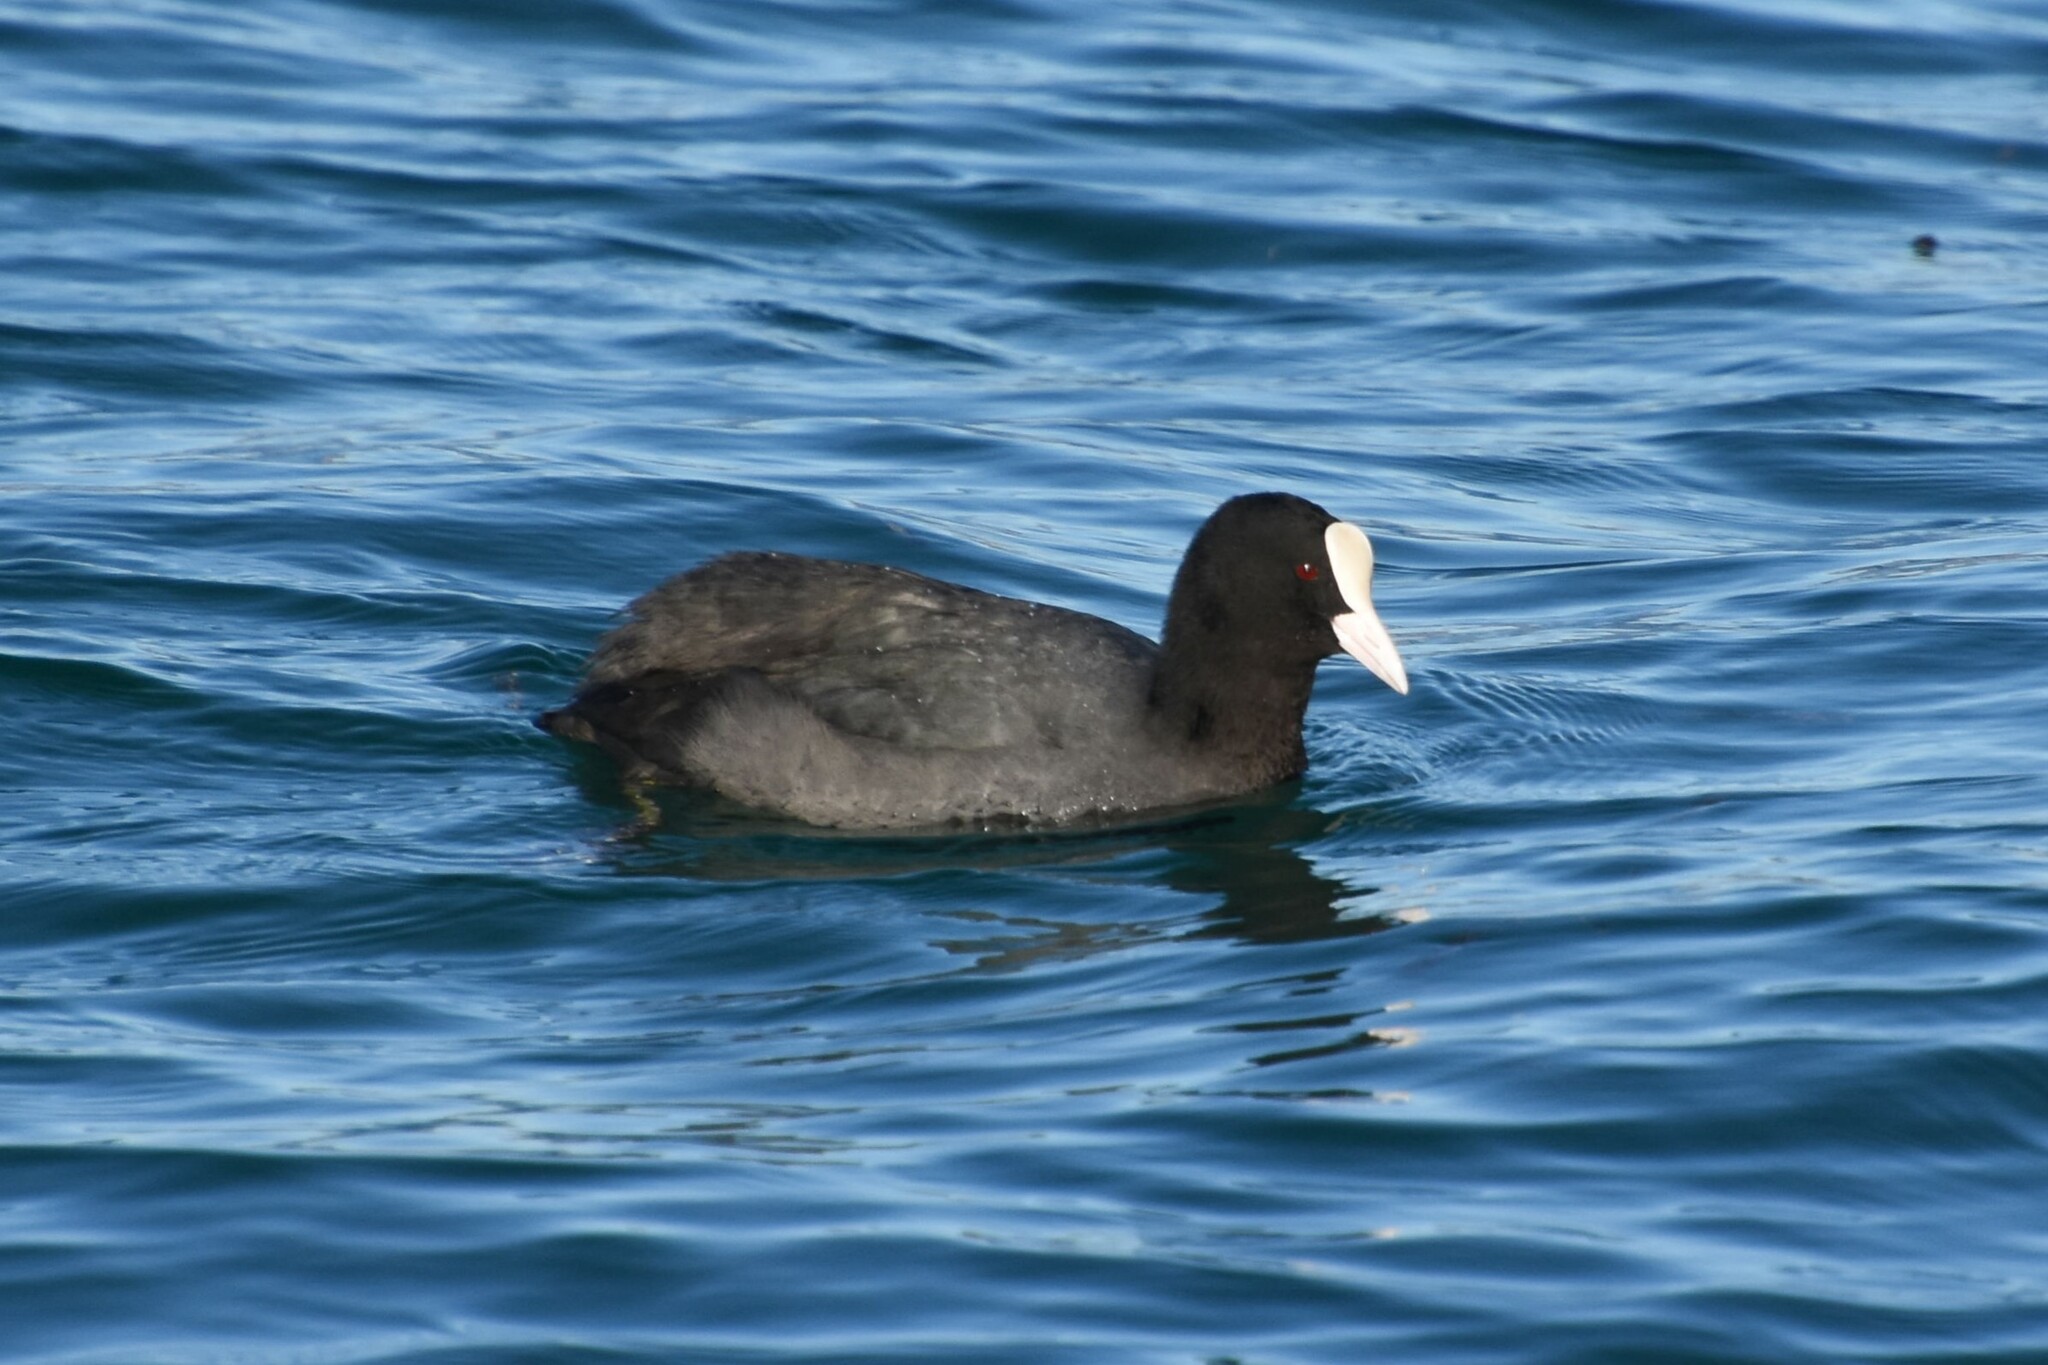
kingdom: Animalia
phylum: Chordata
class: Aves
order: Gruiformes
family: Rallidae
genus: Fulica
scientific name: Fulica atra
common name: Eurasian coot
